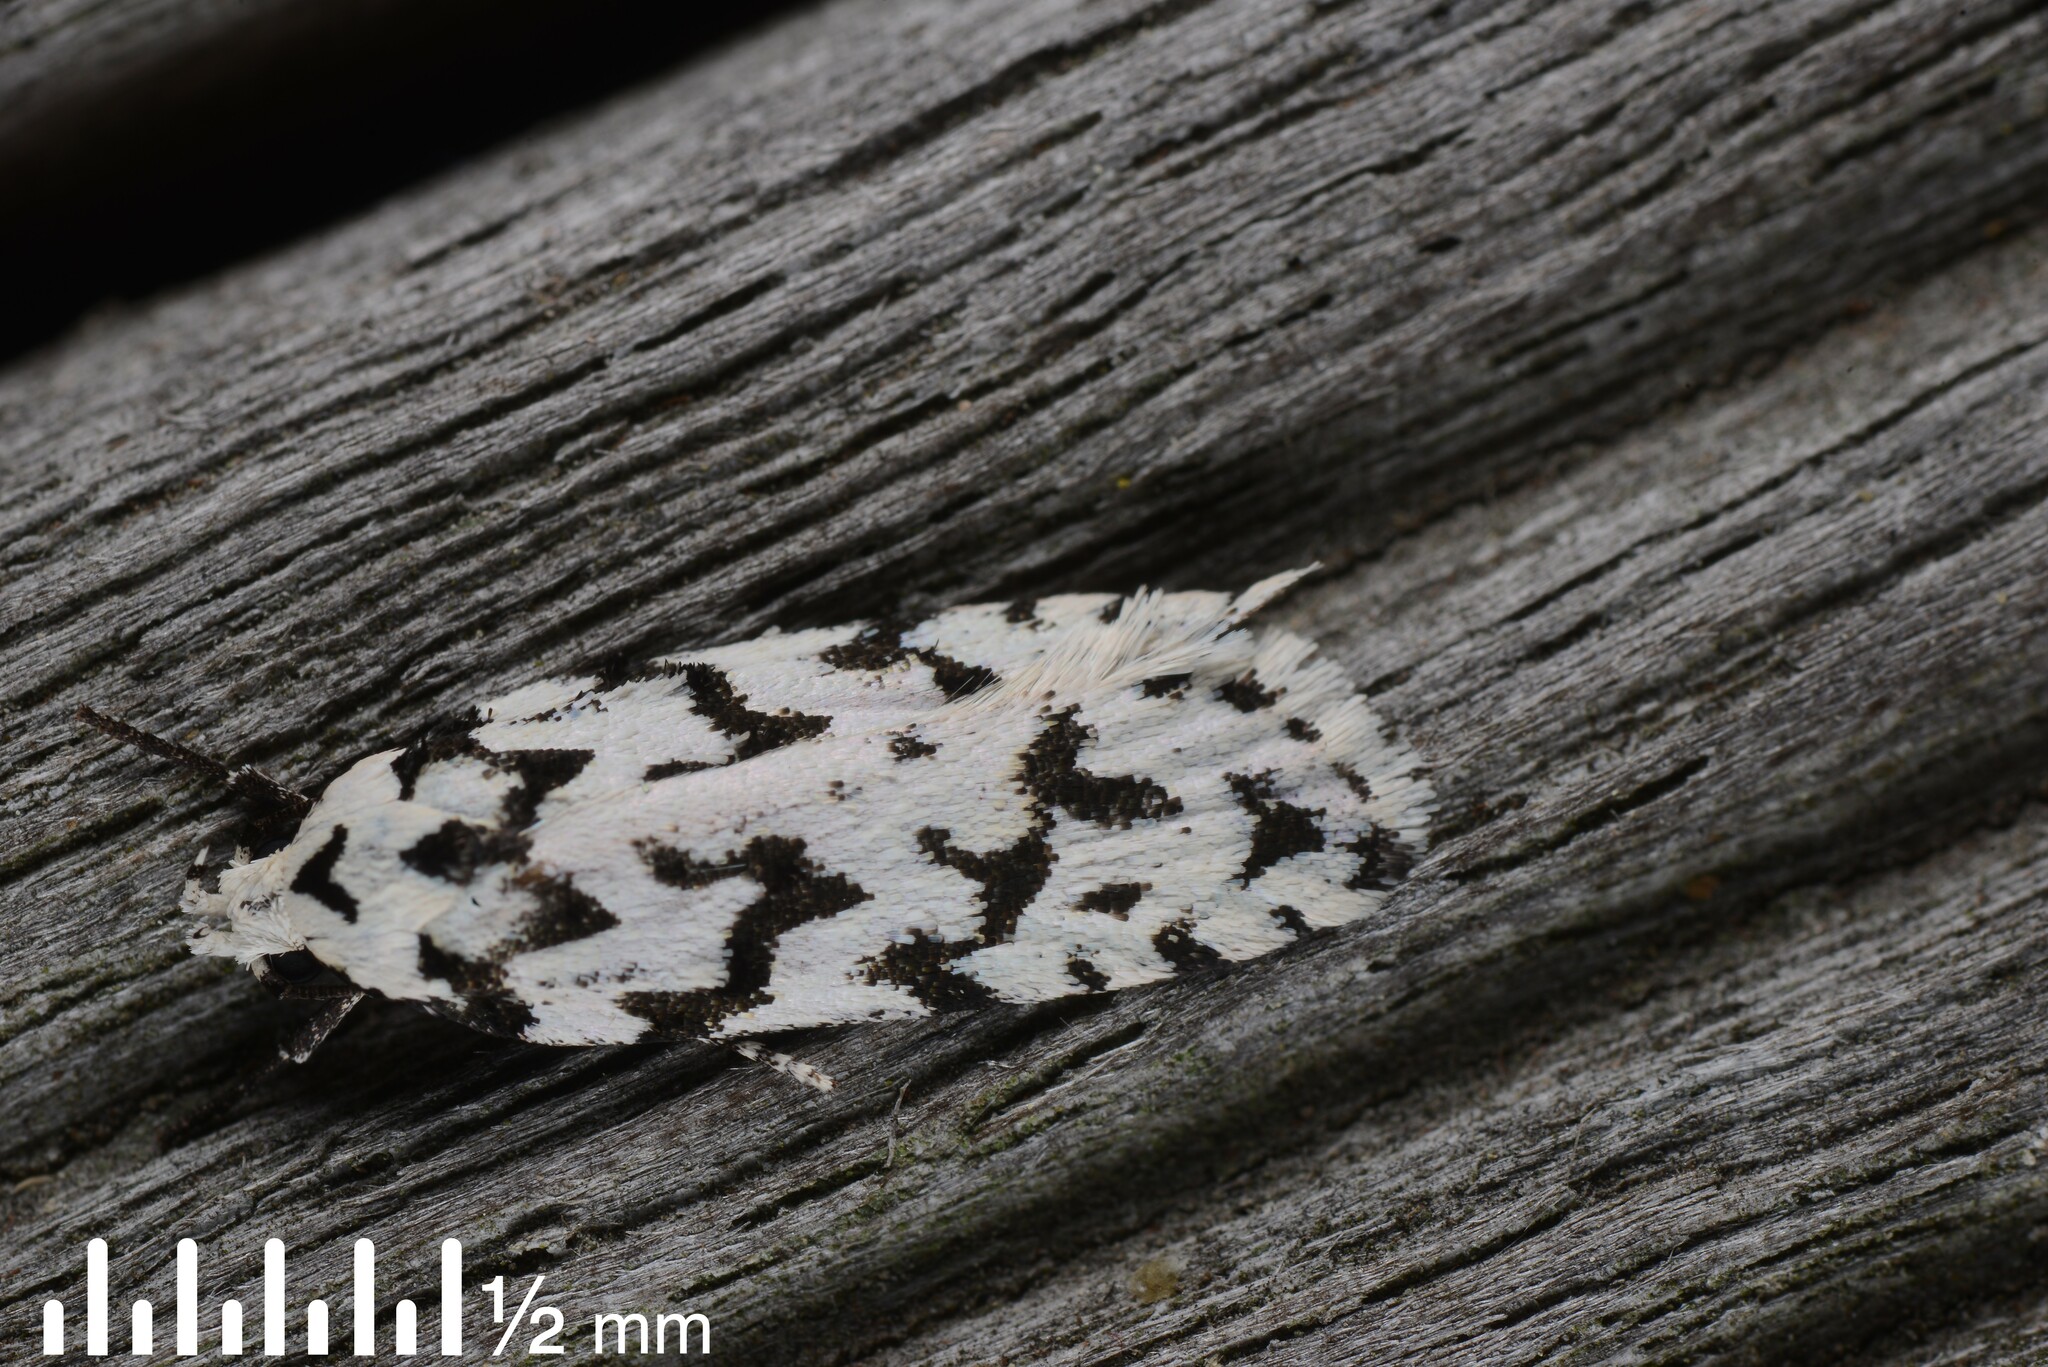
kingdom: Animalia
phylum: Arthropoda
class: Insecta
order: Lepidoptera
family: Oecophoridae
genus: Izatha
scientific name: Izatha katadiktya
